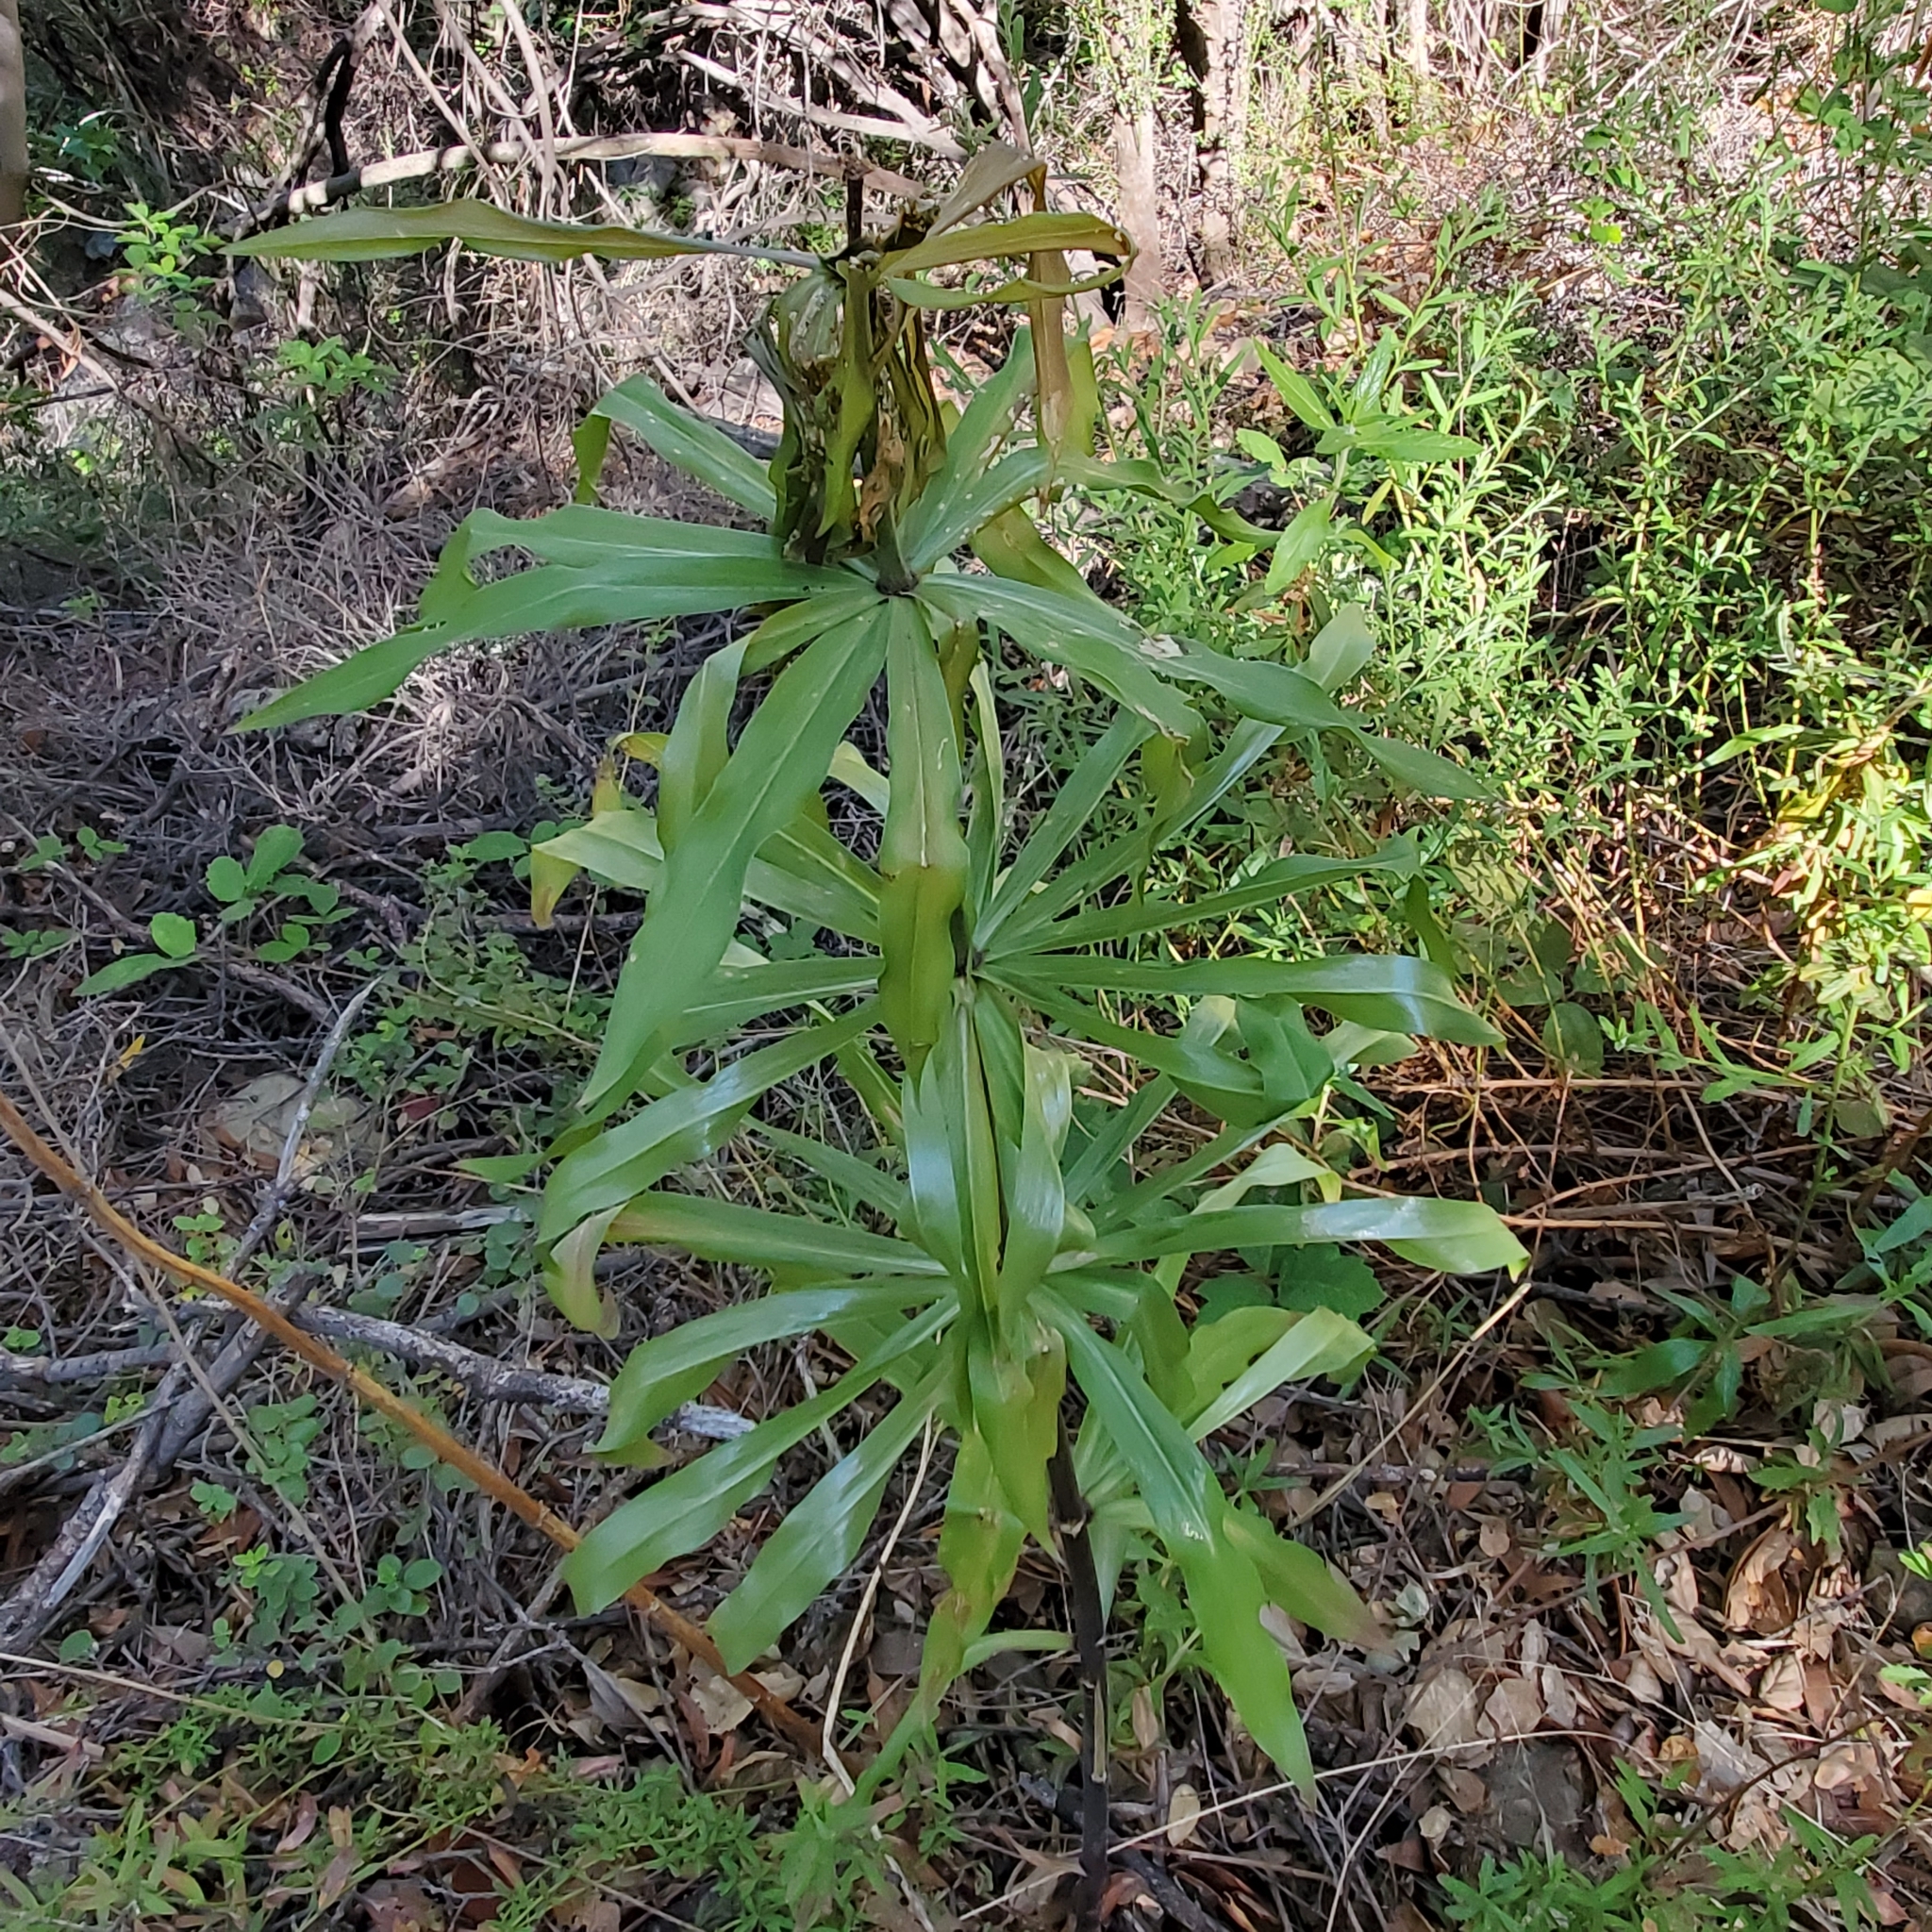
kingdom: Plantae
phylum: Tracheophyta
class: Liliopsida
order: Liliales
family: Liliaceae
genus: Lilium
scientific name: Lilium humboldtii
